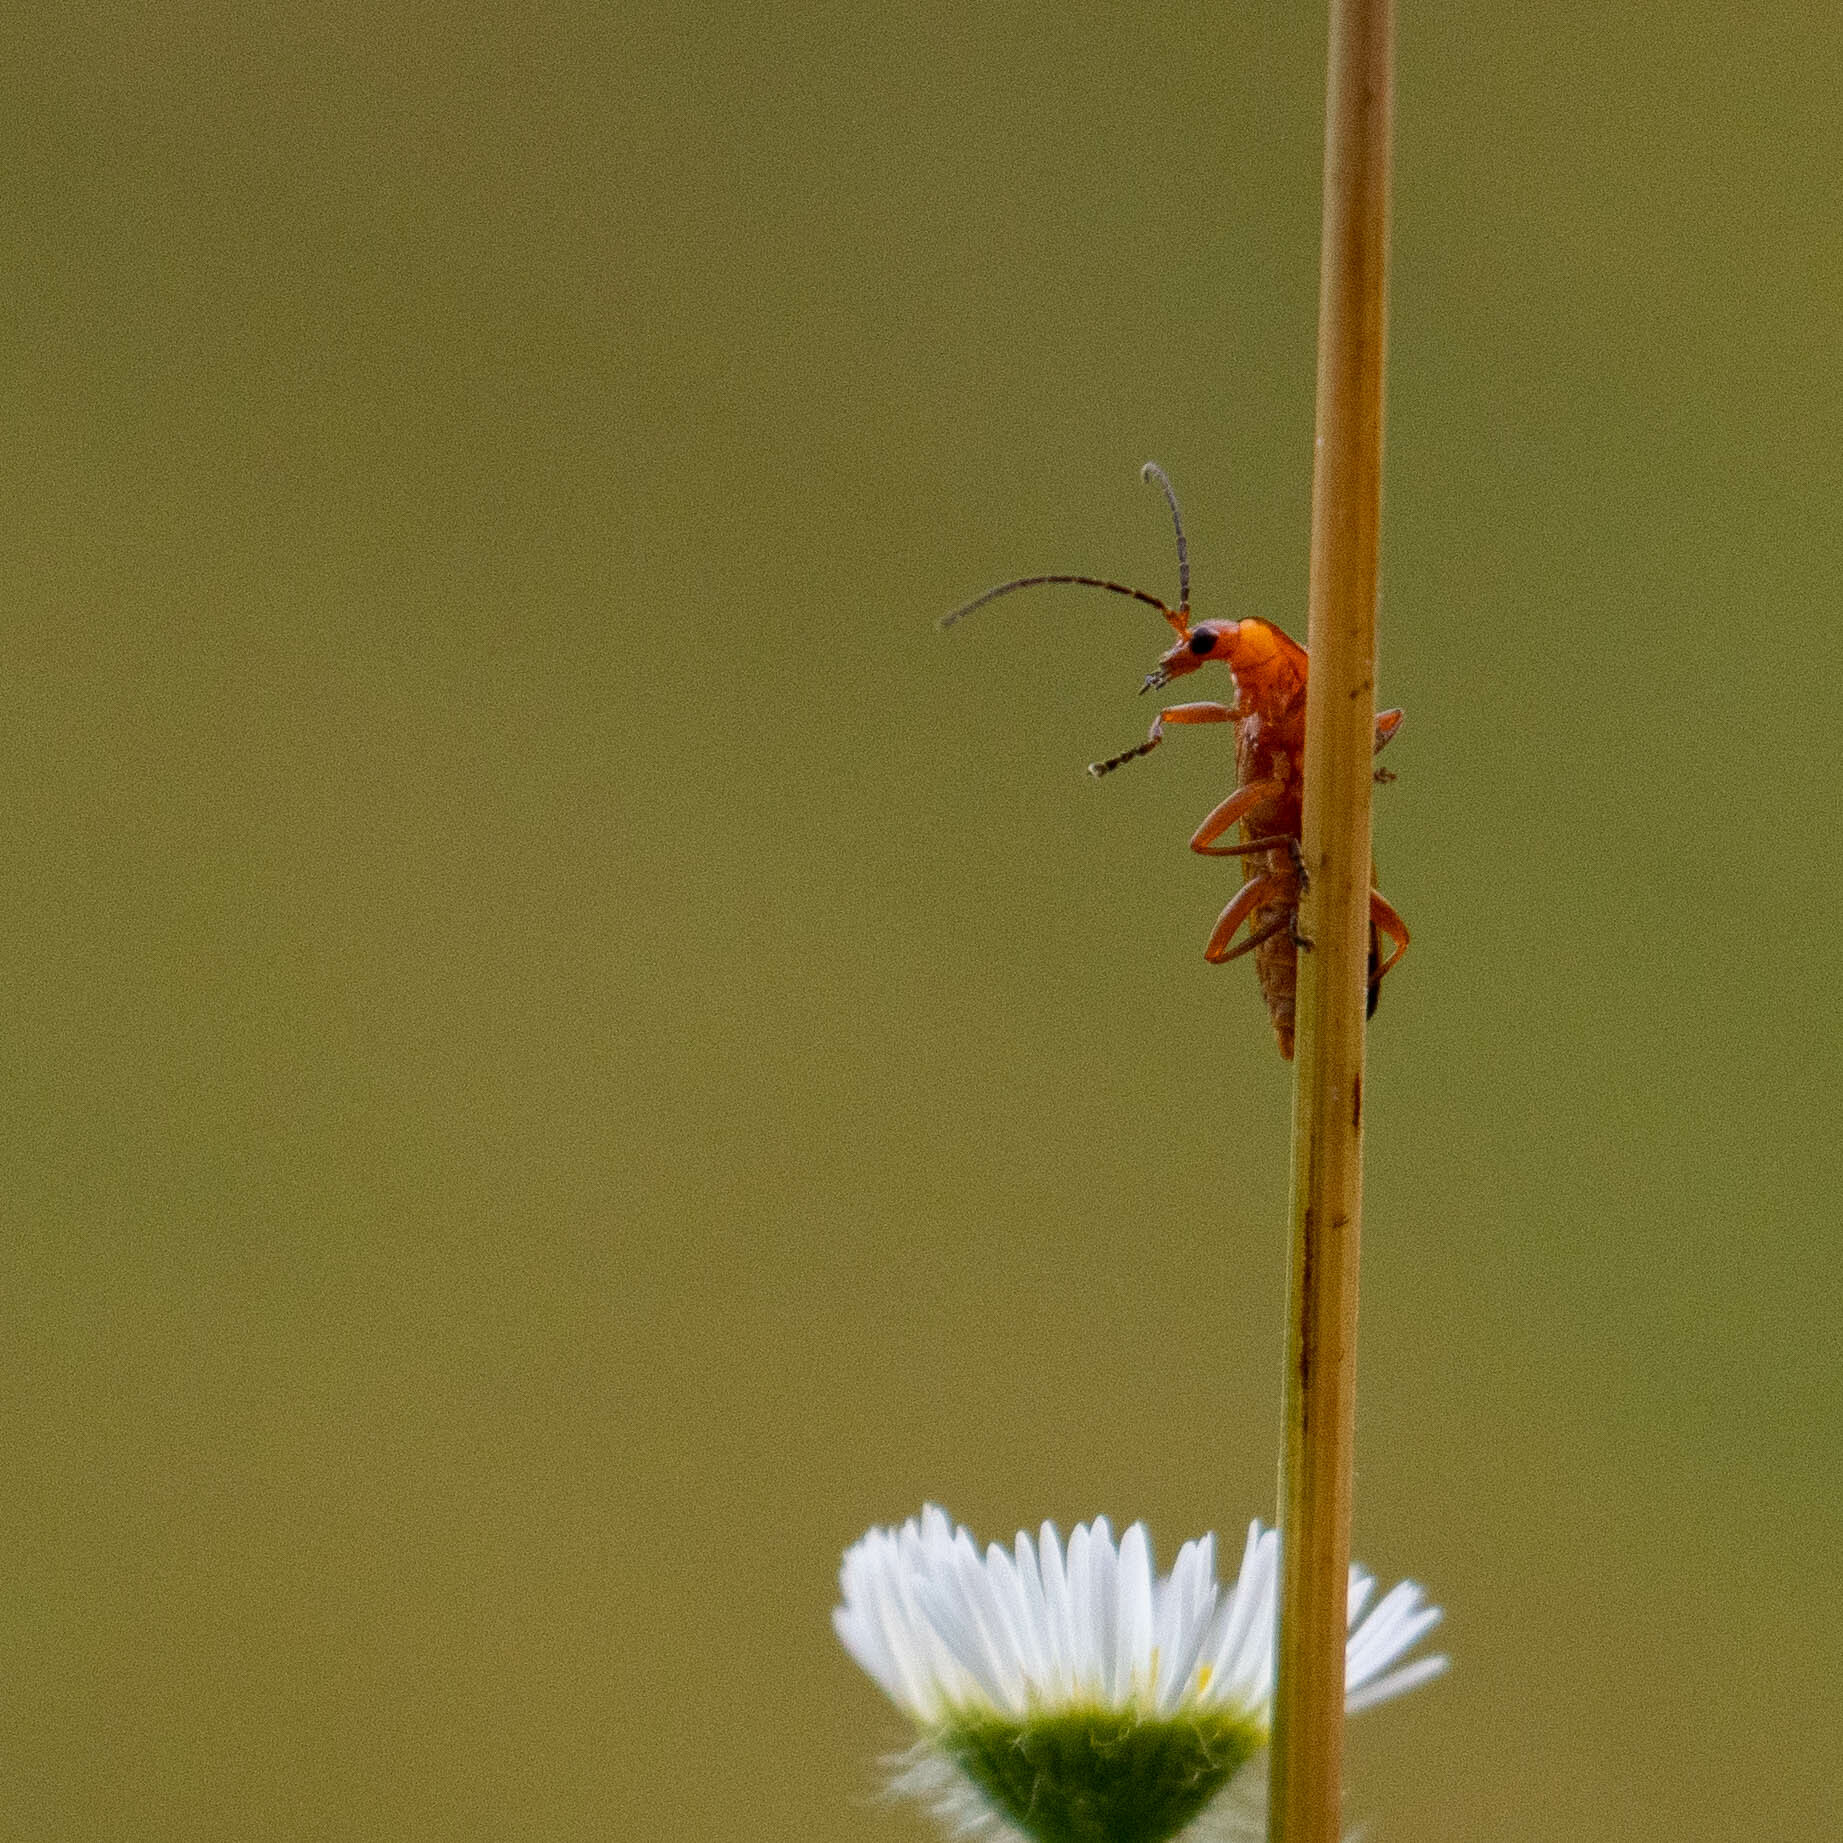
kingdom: Animalia
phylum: Arthropoda
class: Insecta
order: Coleoptera
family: Cantharidae
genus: Rhagonycha
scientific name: Rhagonycha fulva
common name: Common red soldier beetle
